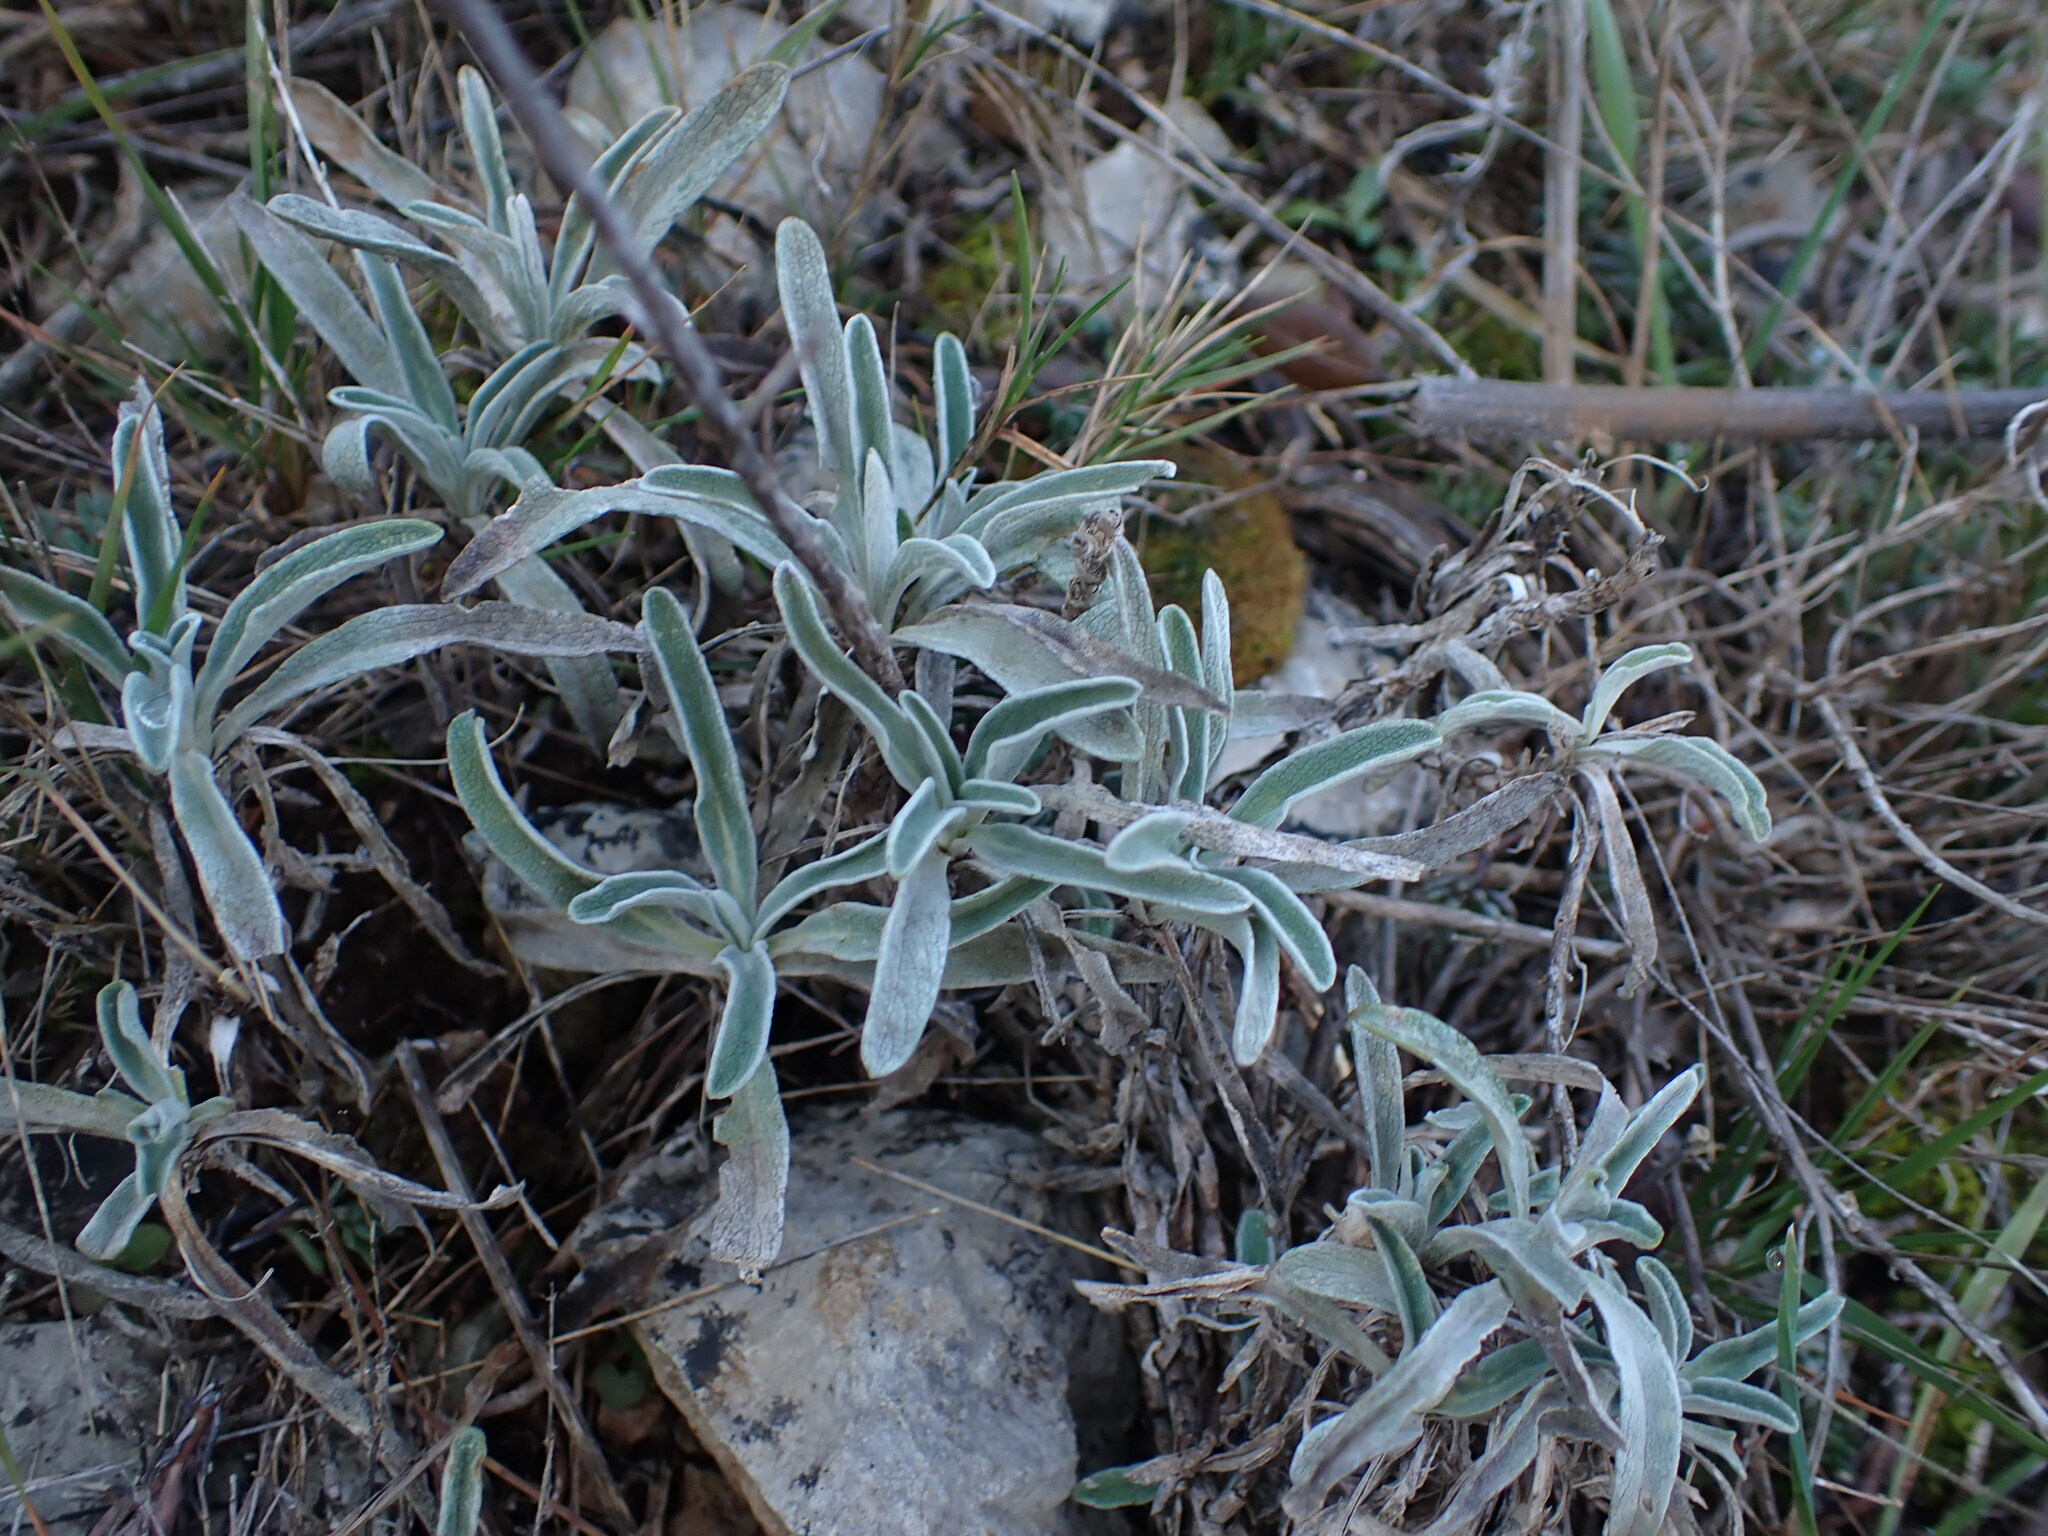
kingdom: Plantae
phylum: Tracheophyta
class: Magnoliopsida
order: Lamiales
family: Lamiaceae
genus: Phlomis
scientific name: Phlomis lychnitis
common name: Lampwickplant
